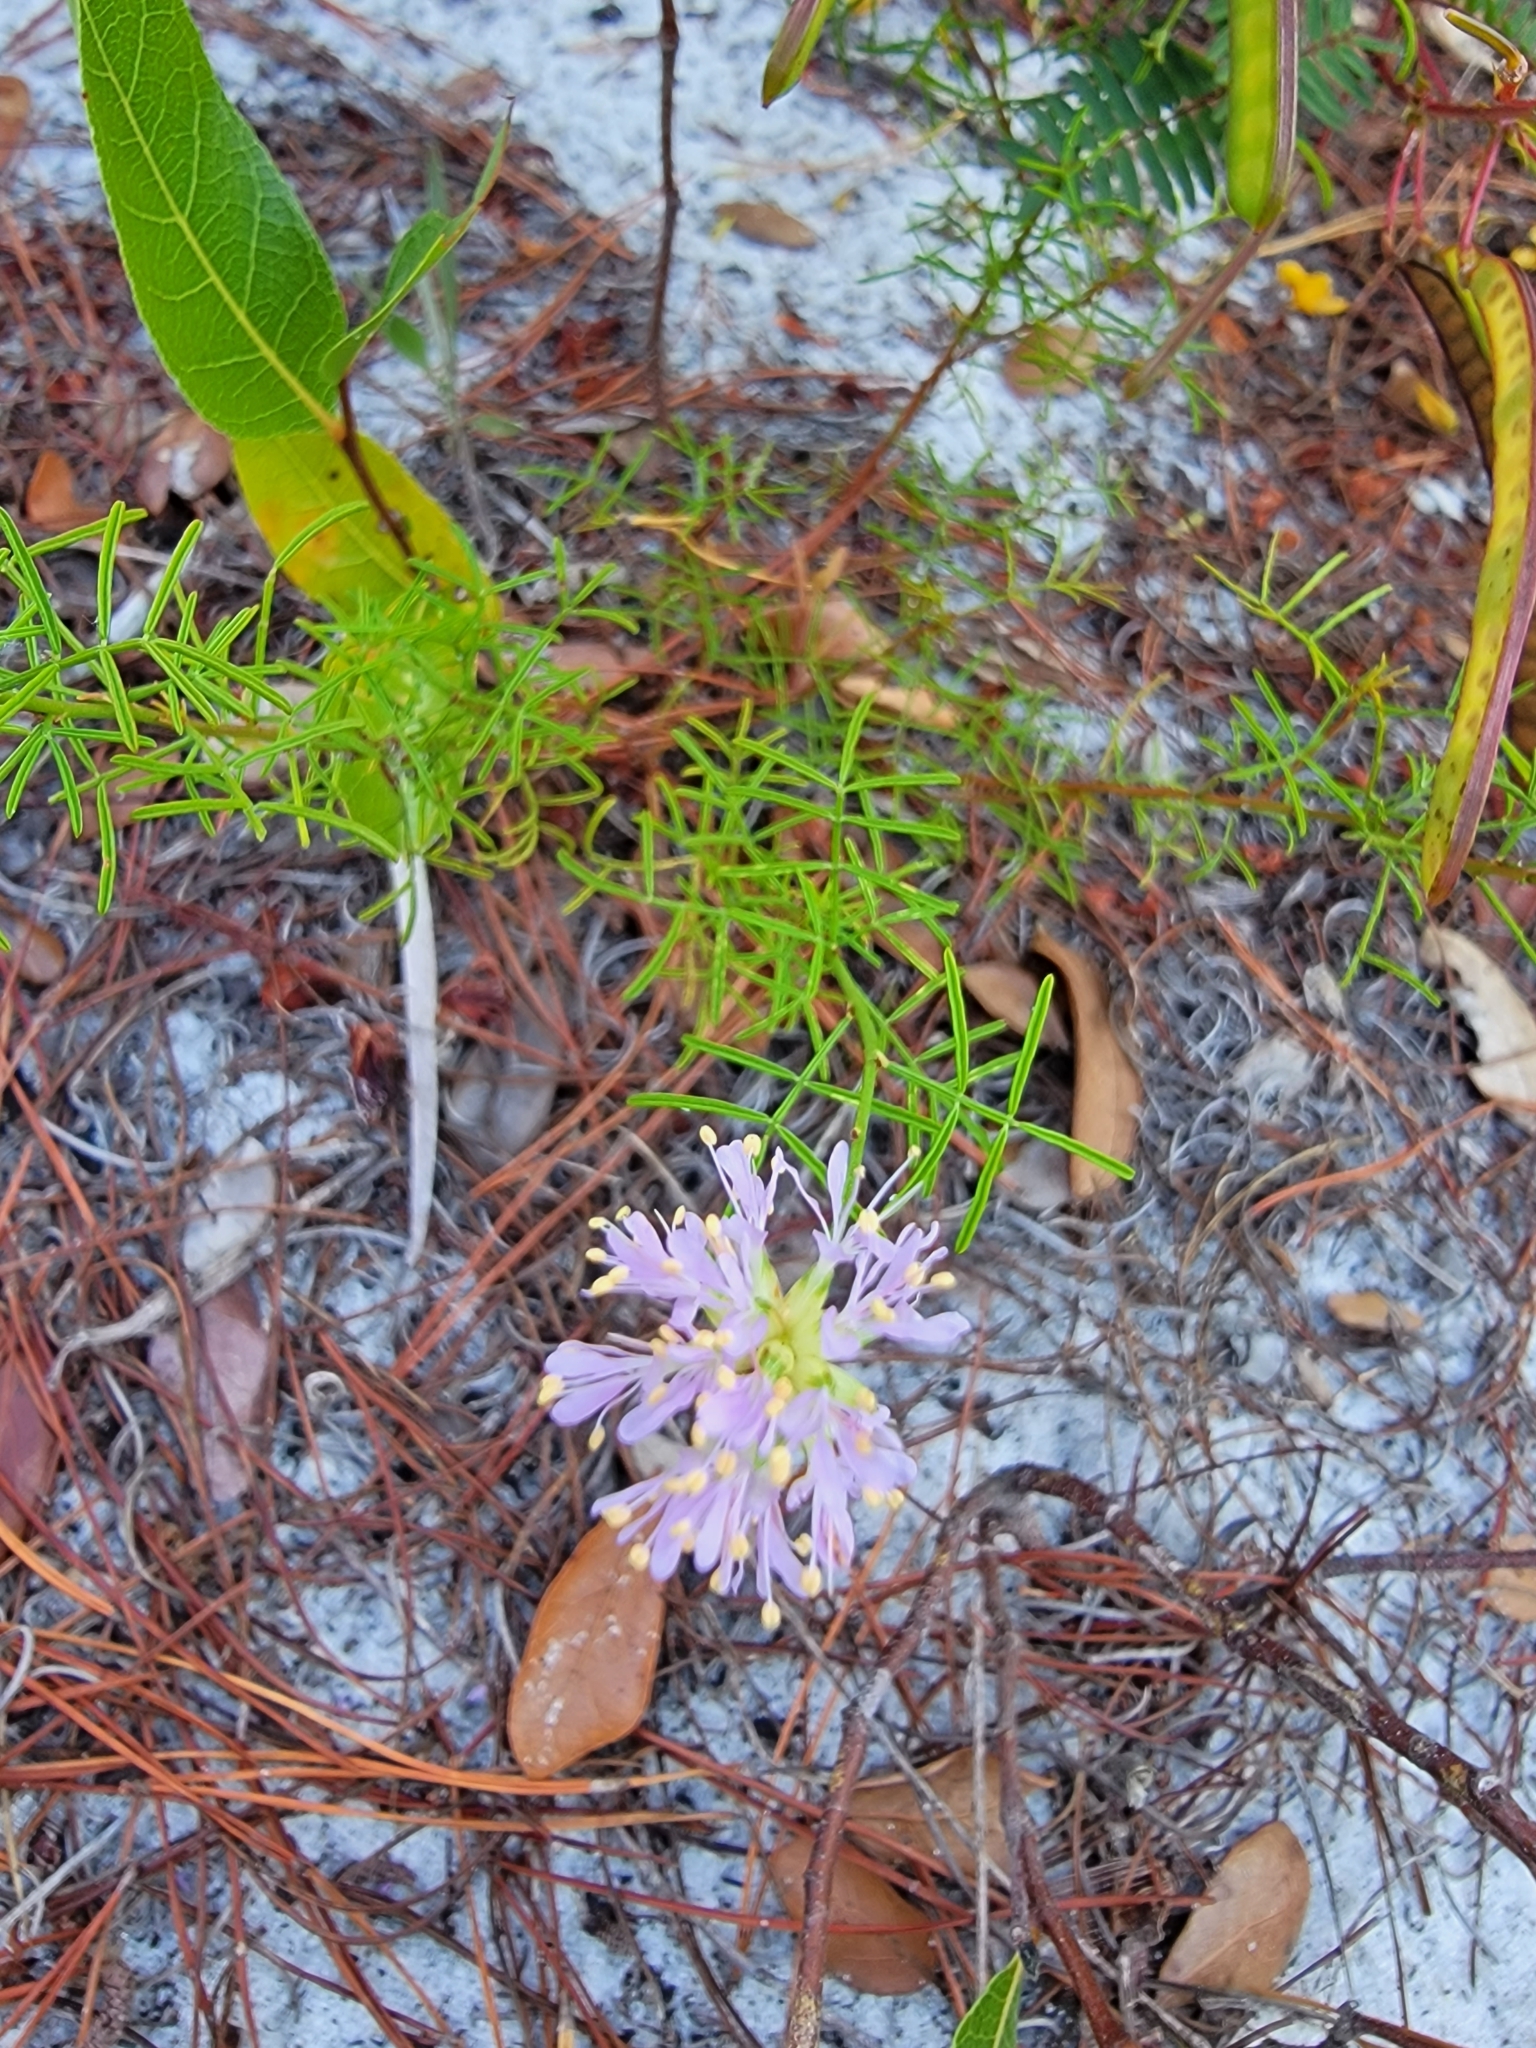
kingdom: Plantae
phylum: Tracheophyta
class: Magnoliopsida
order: Fabales
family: Fabaceae
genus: Dalea
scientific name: Dalea feayi
